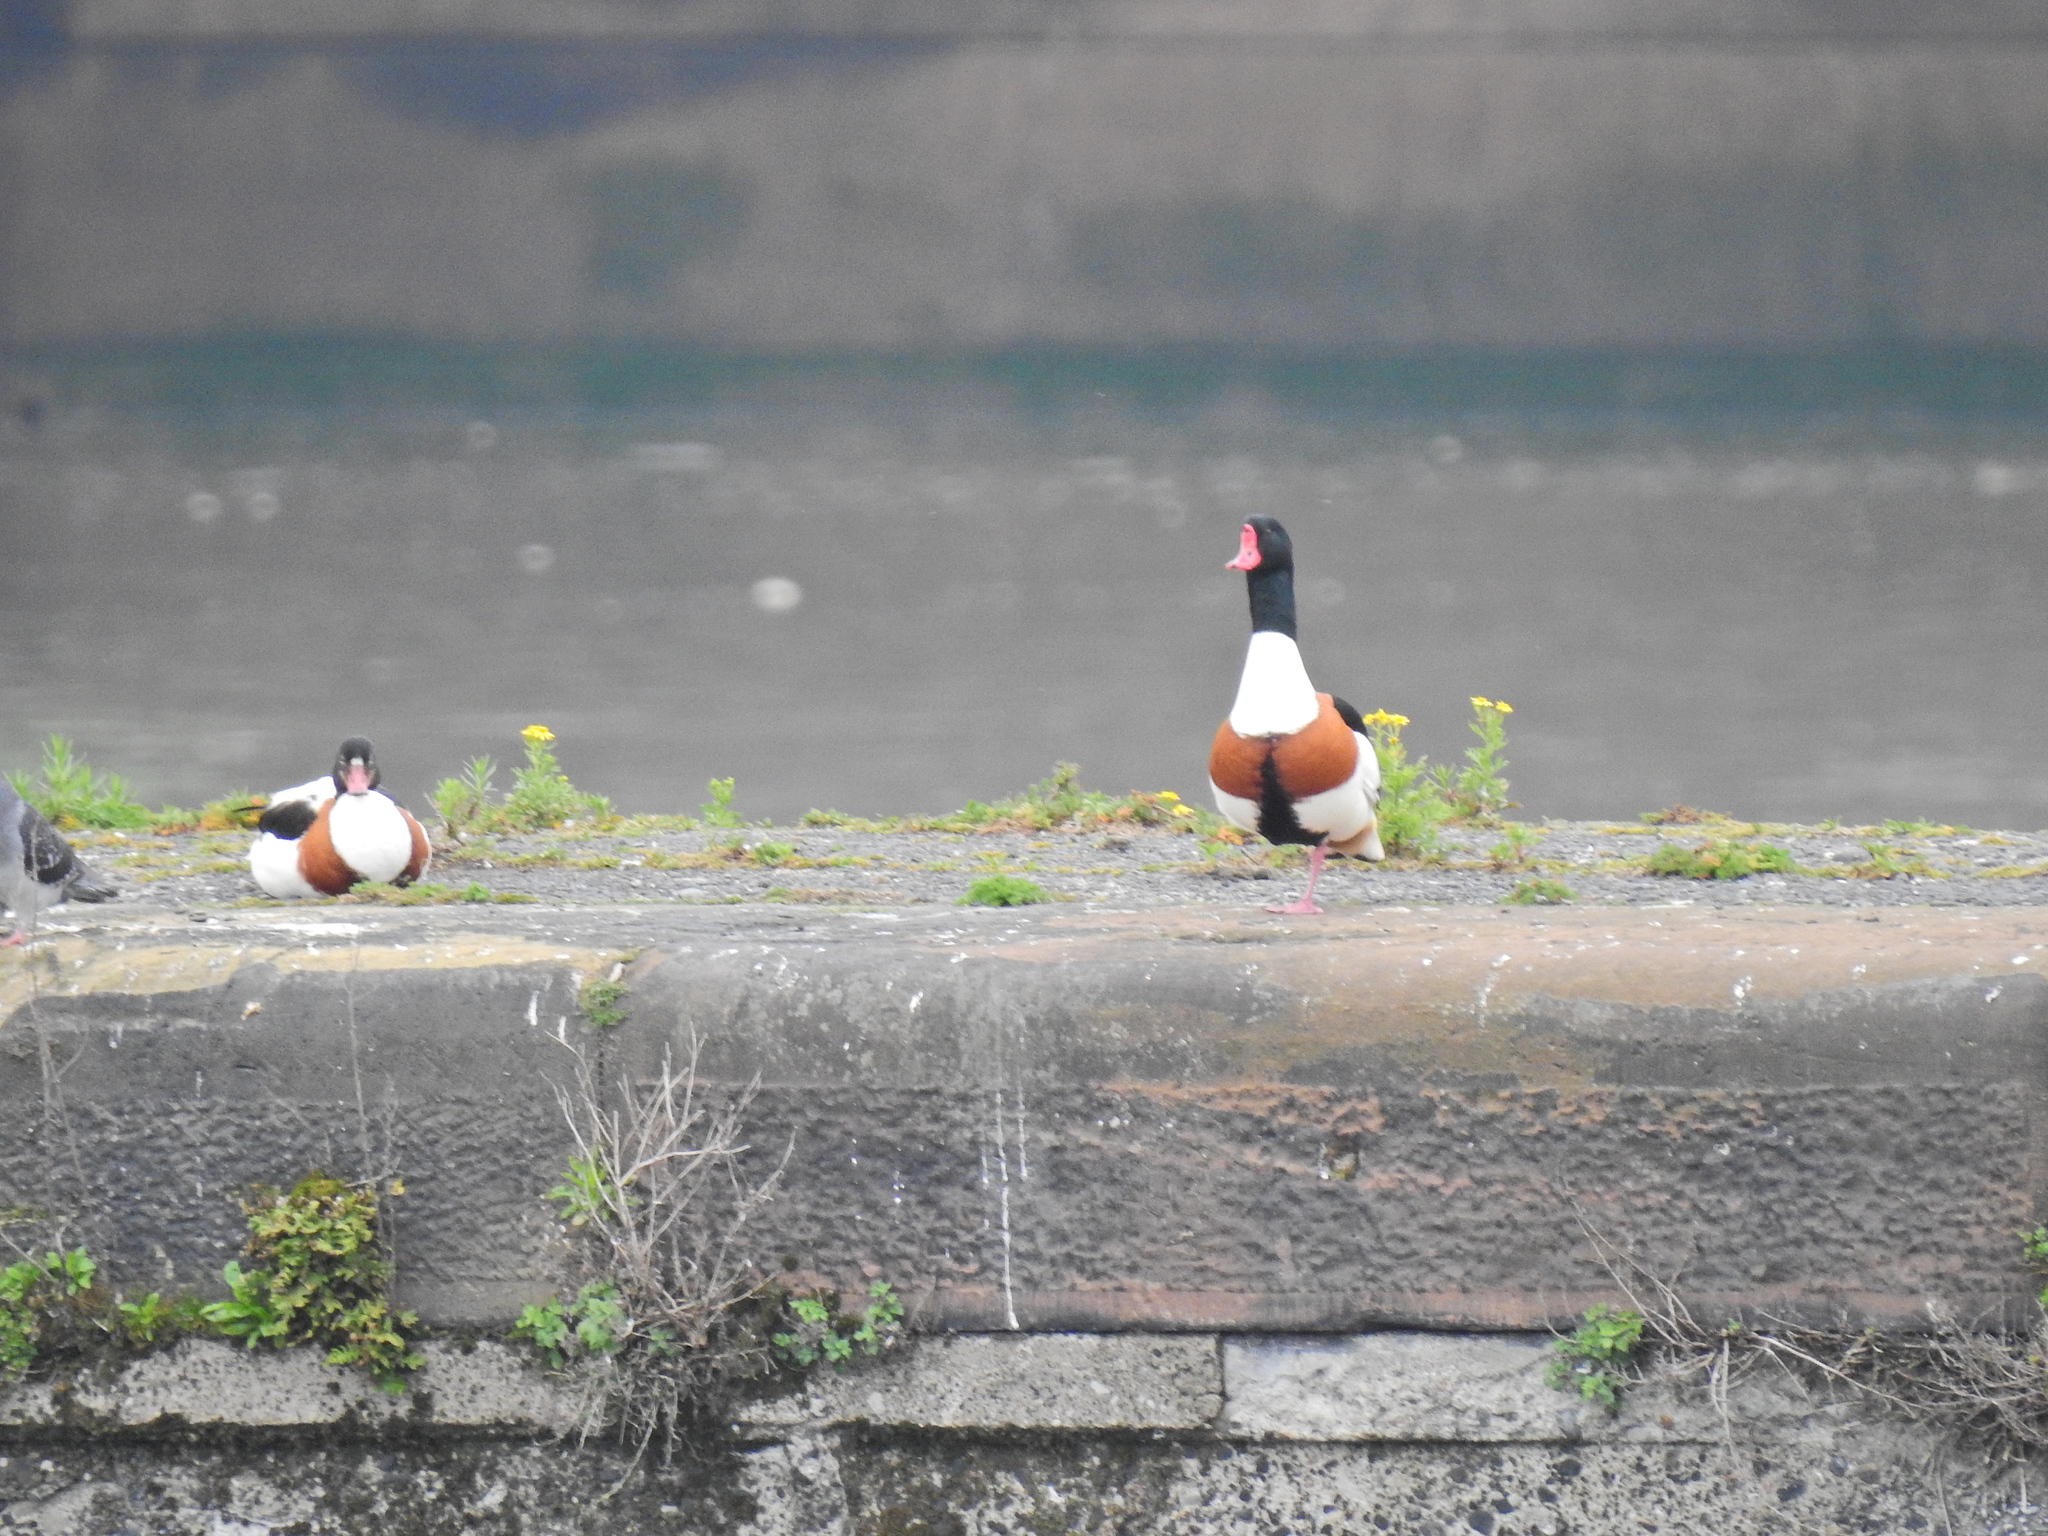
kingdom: Animalia
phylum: Chordata
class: Aves
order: Anseriformes
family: Anatidae
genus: Tadorna
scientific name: Tadorna tadorna
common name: Common shelduck
